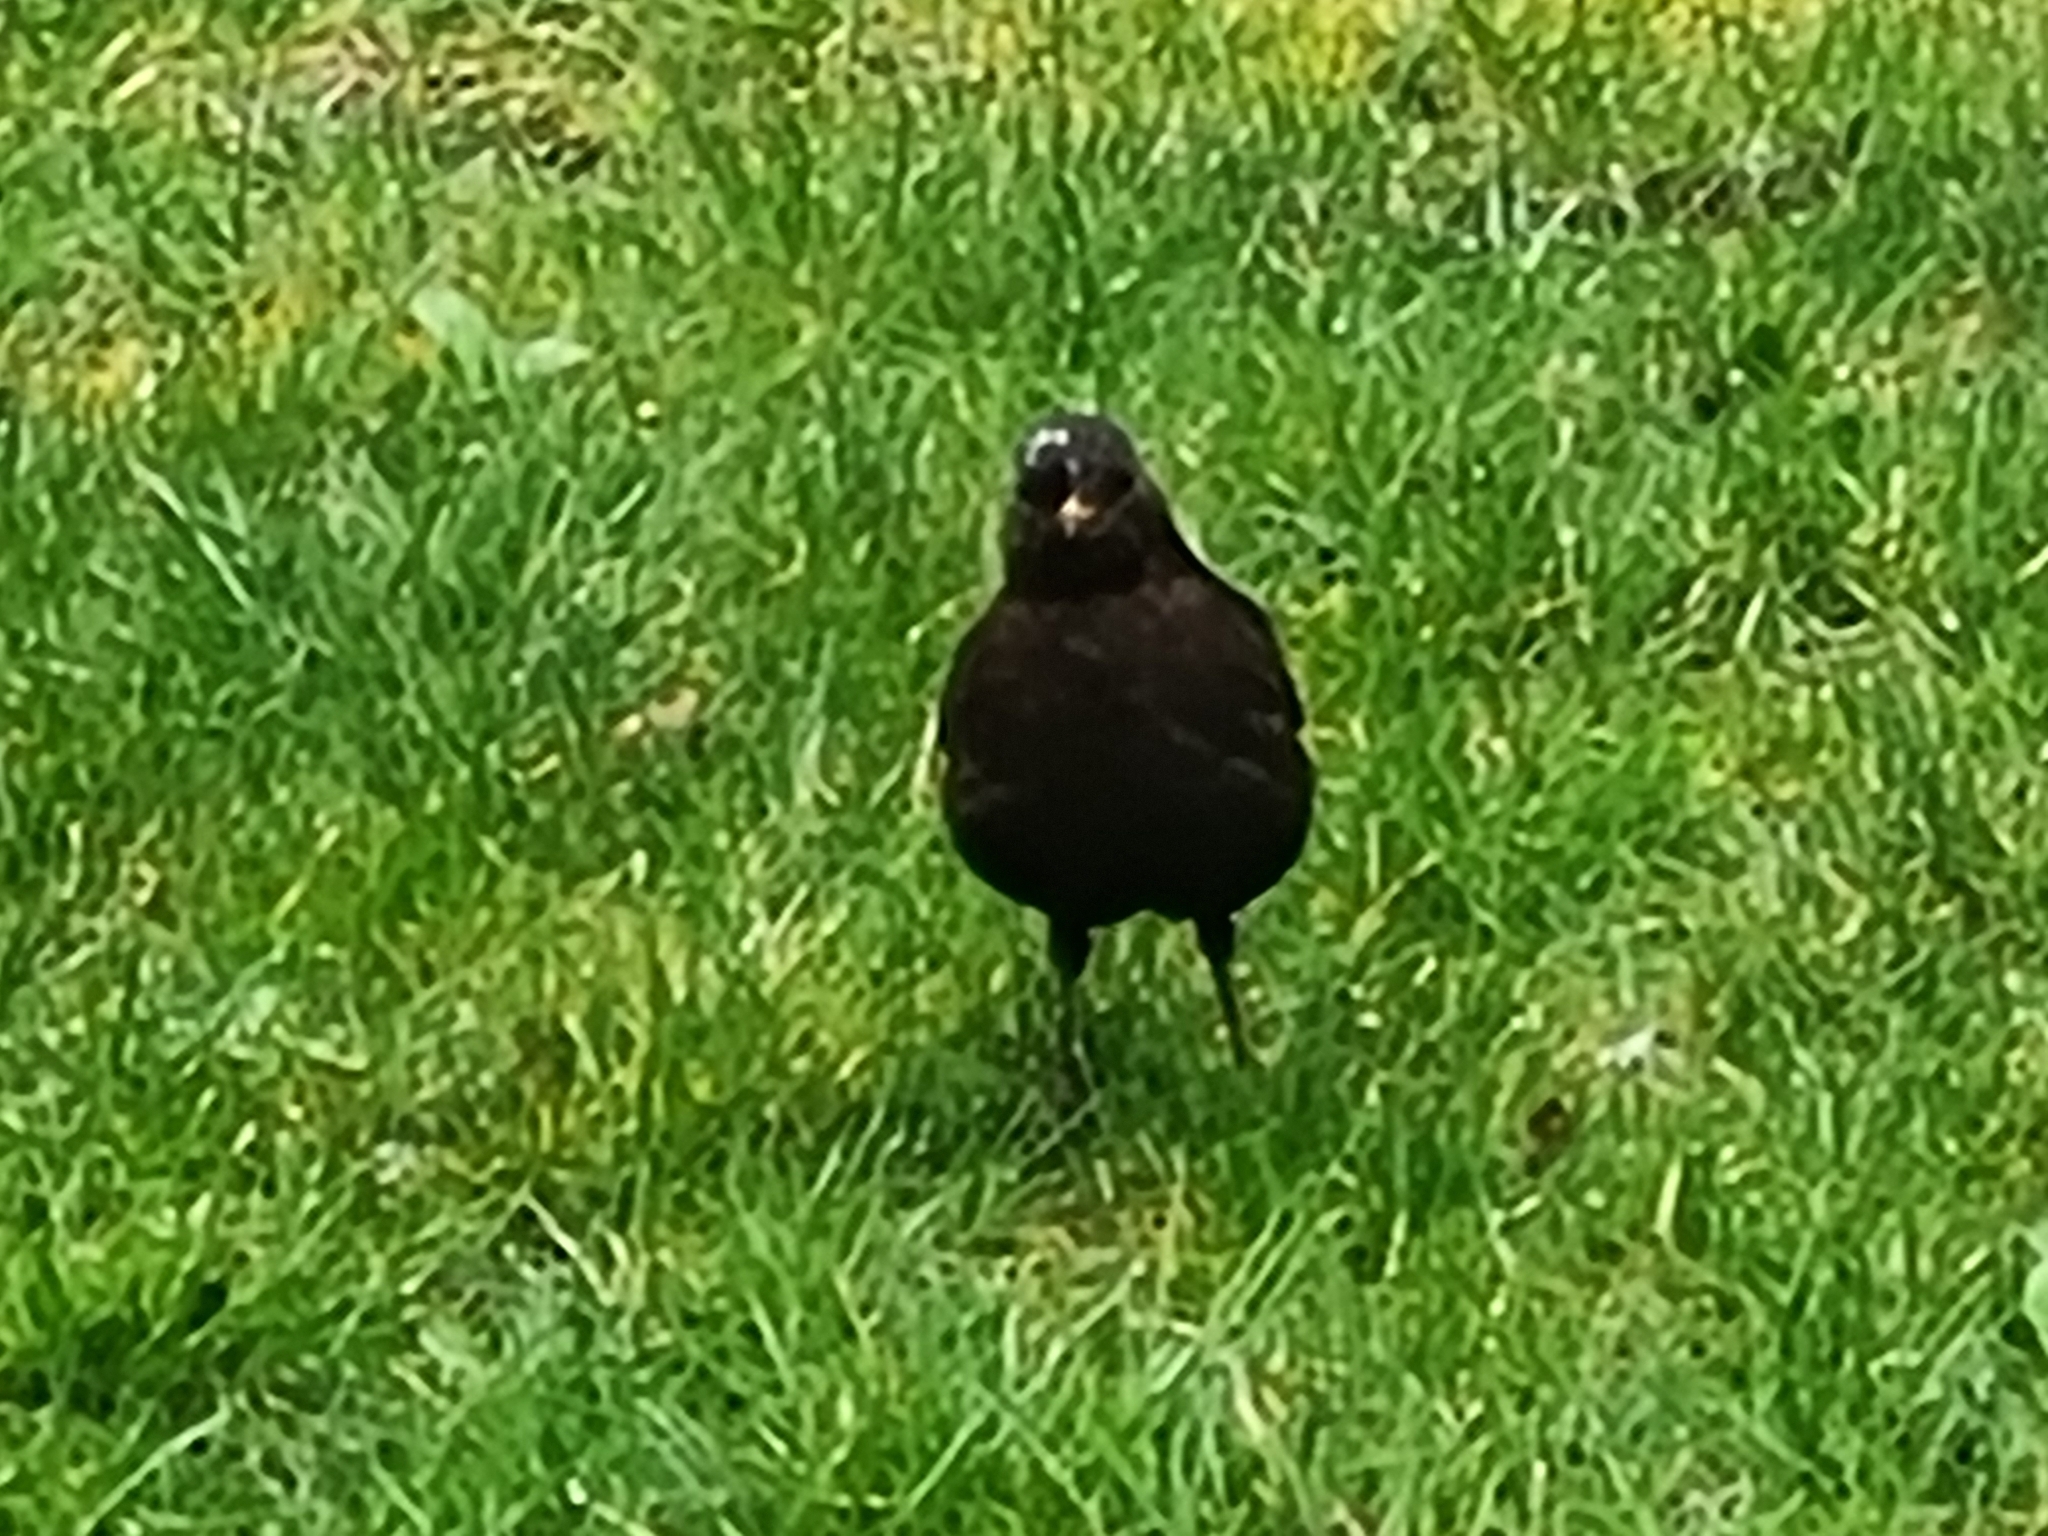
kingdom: Animalia
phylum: Chordata
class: Aves
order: Passeriformes
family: Turdidae
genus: Turdus
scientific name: Turdus merula
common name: Common blackbird
